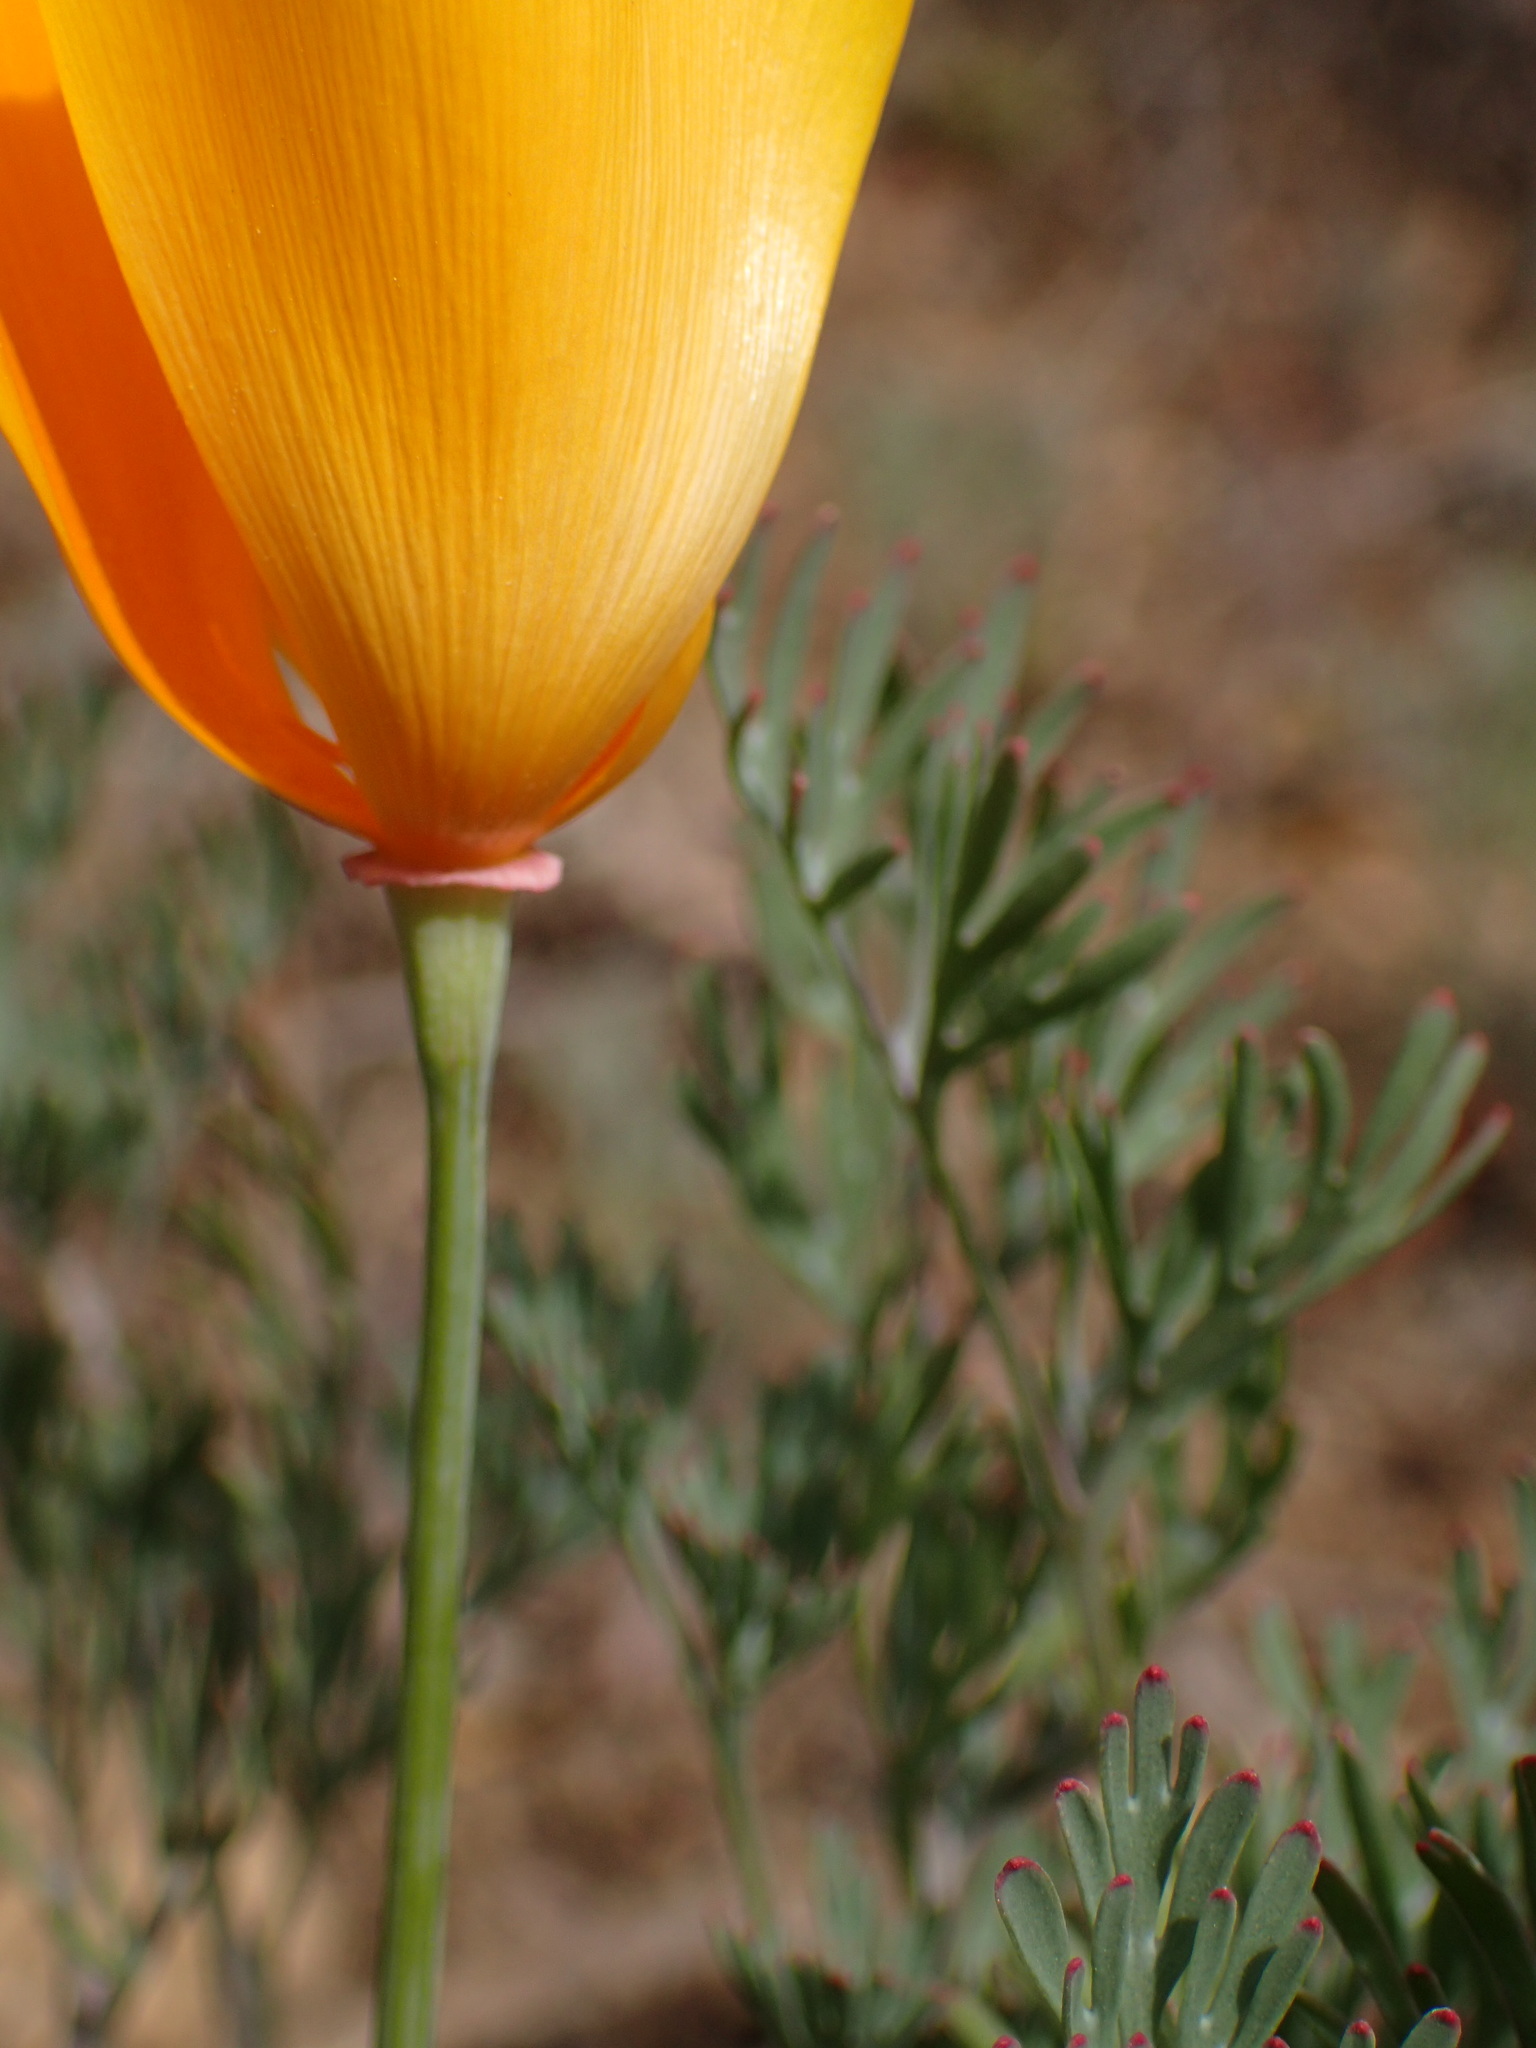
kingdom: Plantae
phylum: Tracheophyta
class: Magnoliopsida
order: Ranunculales
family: Papaveraceae
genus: Eschscholzia
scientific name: Eschscholzia californica
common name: California poppy
